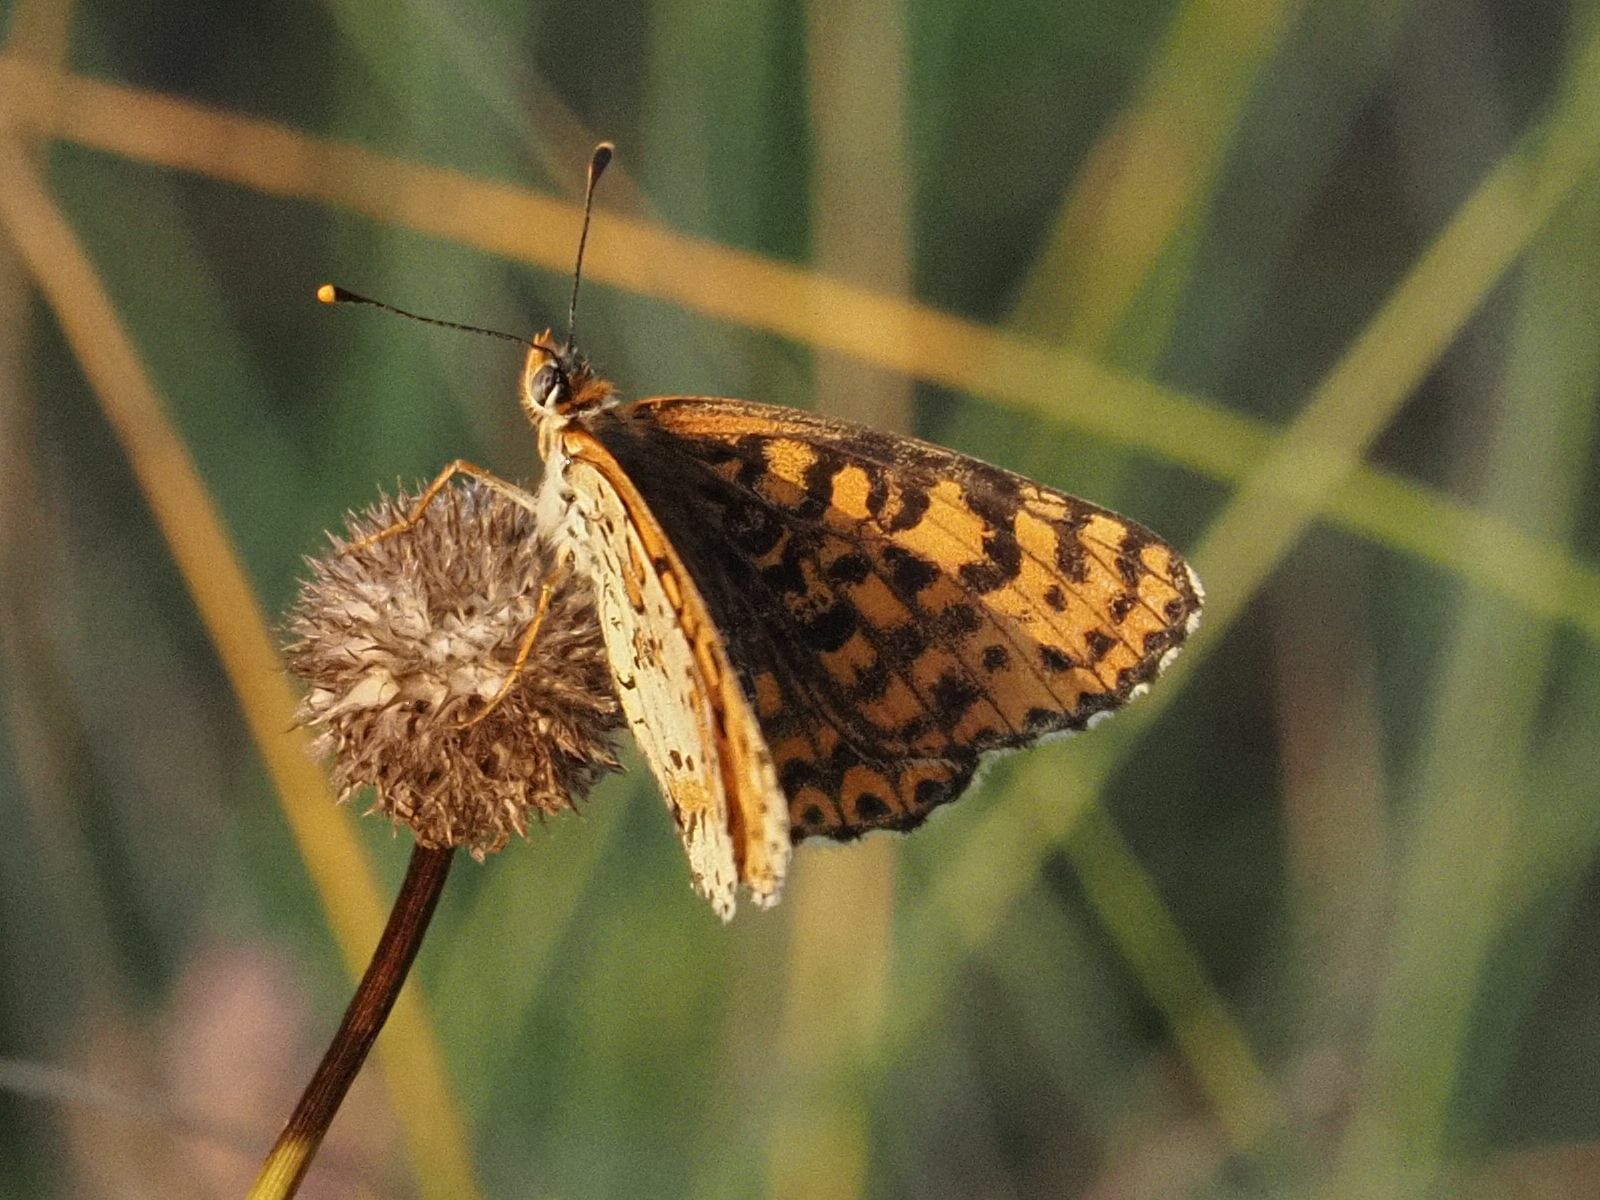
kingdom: Animalia
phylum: Arthropoda
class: Insecta
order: Lepidoptera
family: Nymphalidae
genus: Melitaea
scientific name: Melitaea didyma
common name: Spotted fritillary
